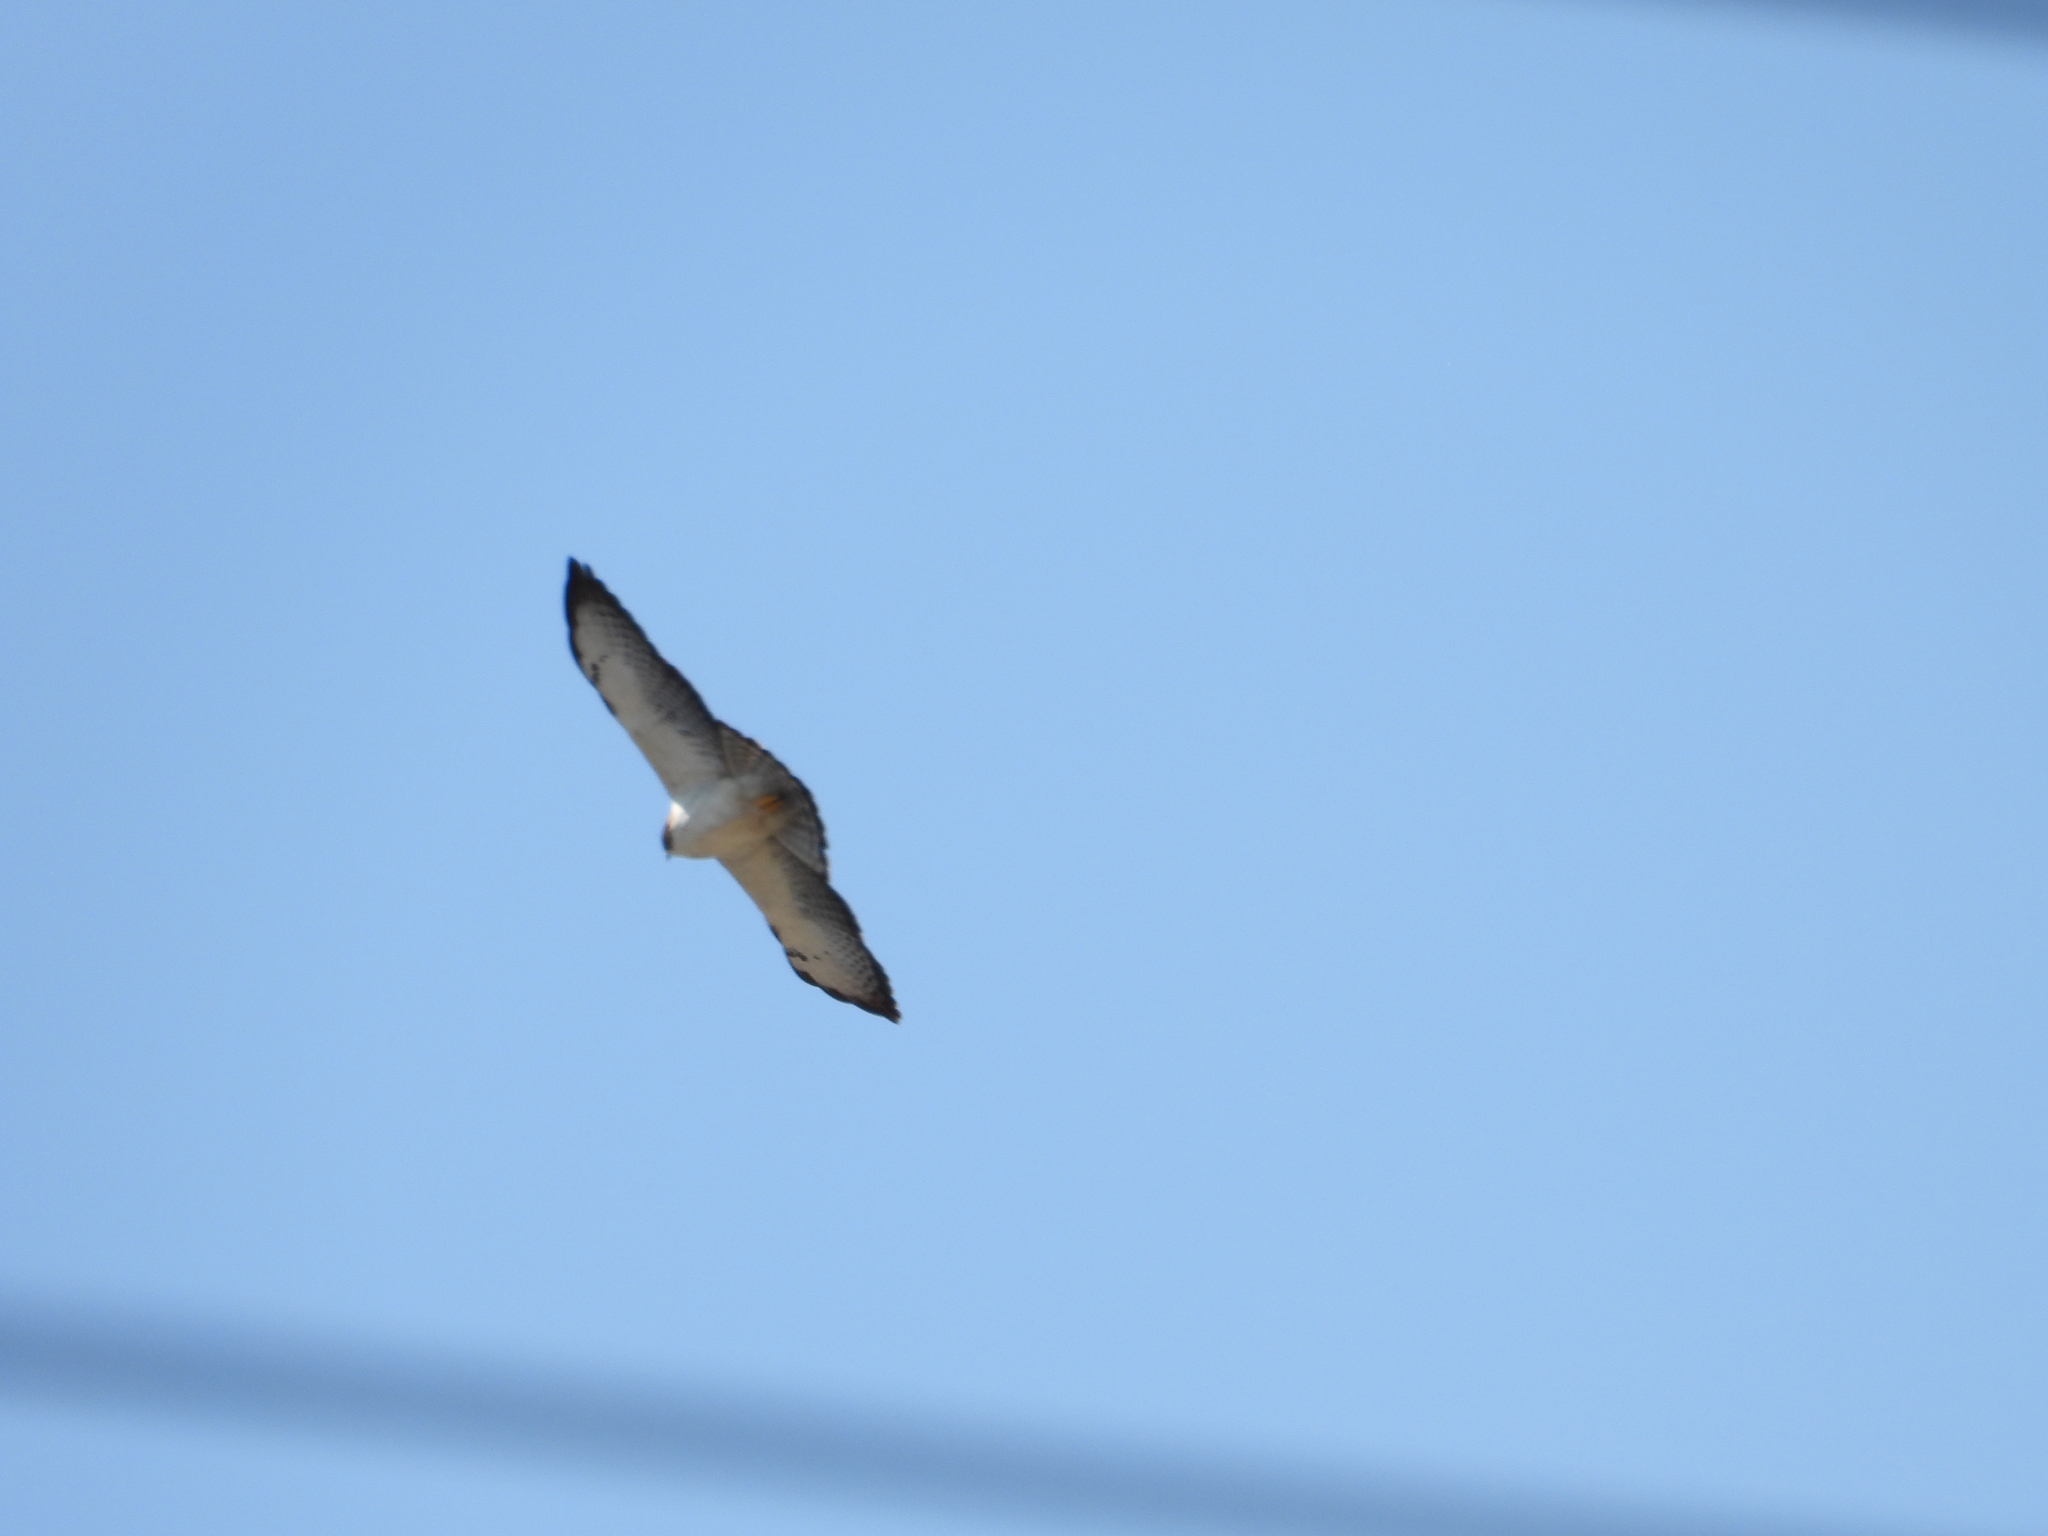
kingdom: Animalia
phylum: Chordata
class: Aves
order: Accipitriformes
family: Accipitridae
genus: Buteo
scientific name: Buteo brachyurus
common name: Short-tailed hawk
